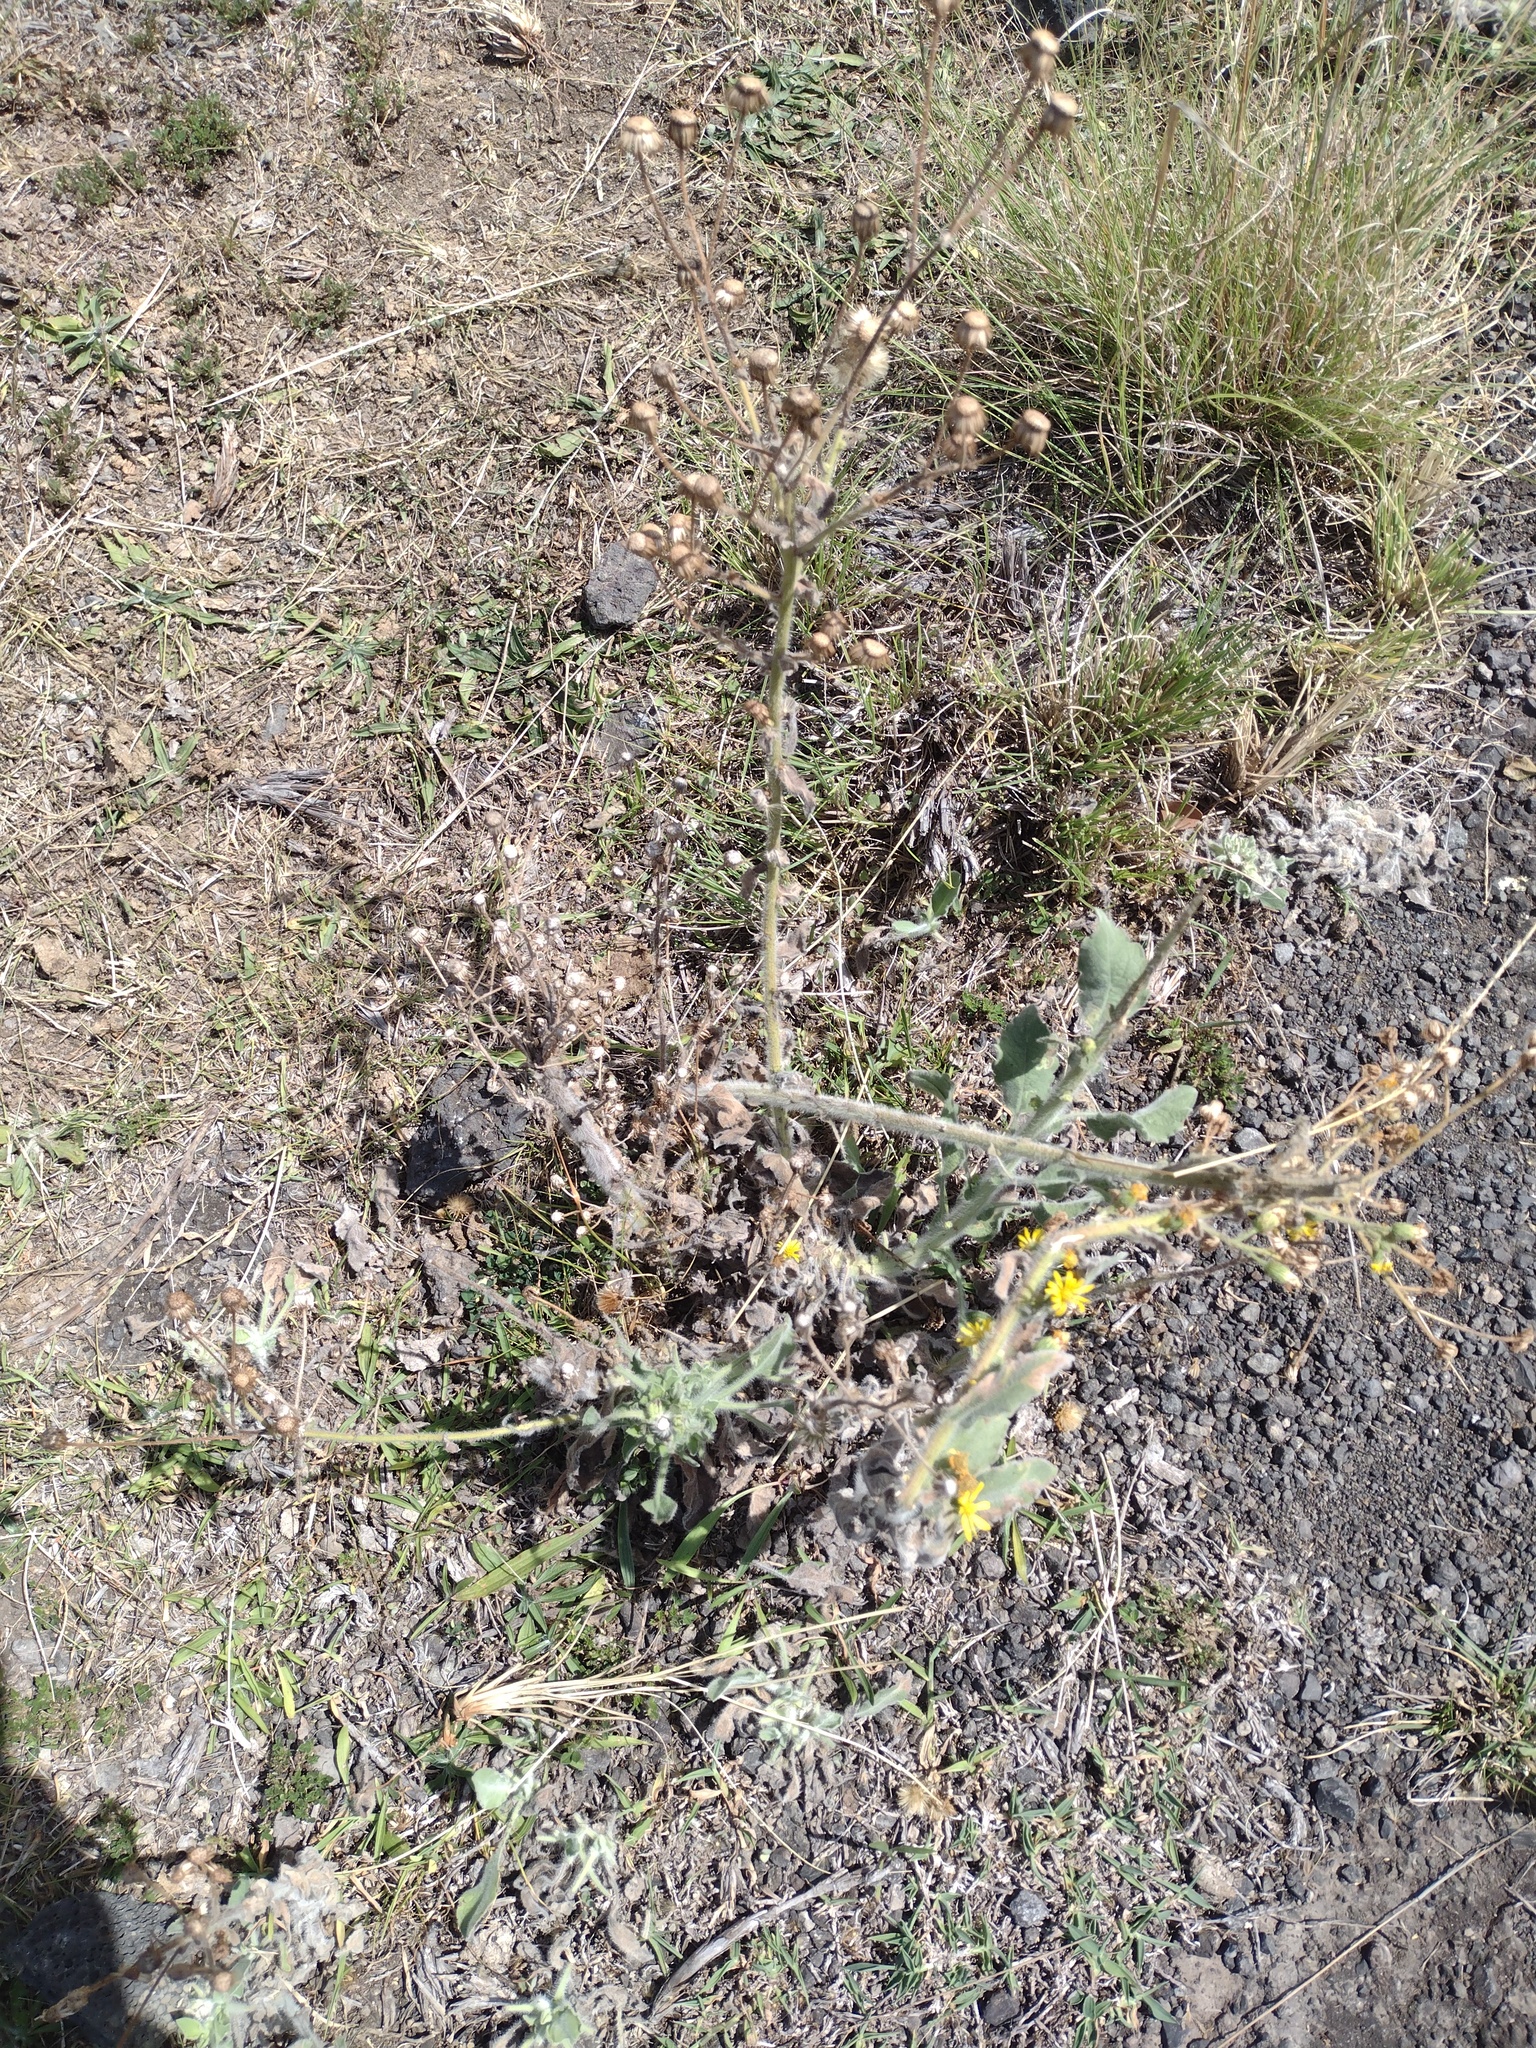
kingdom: Plantae
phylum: Tracheophyta
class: Magnoliopsida
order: Asterales
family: Asteraceae
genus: Heterotheca
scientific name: Heterotheca grandiflora
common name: Telegraphweed
